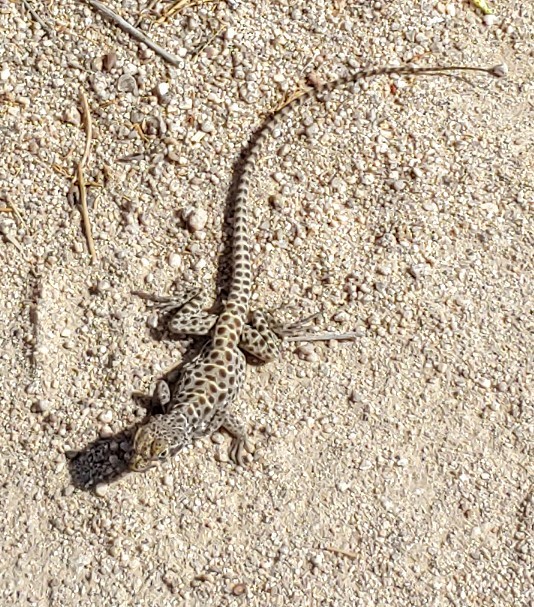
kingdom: Animalia
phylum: Chordata
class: Squamata
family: Crotaphytidae
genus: Gambelia
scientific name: Gambelia wislizenii
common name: Longnose leopard lizard
